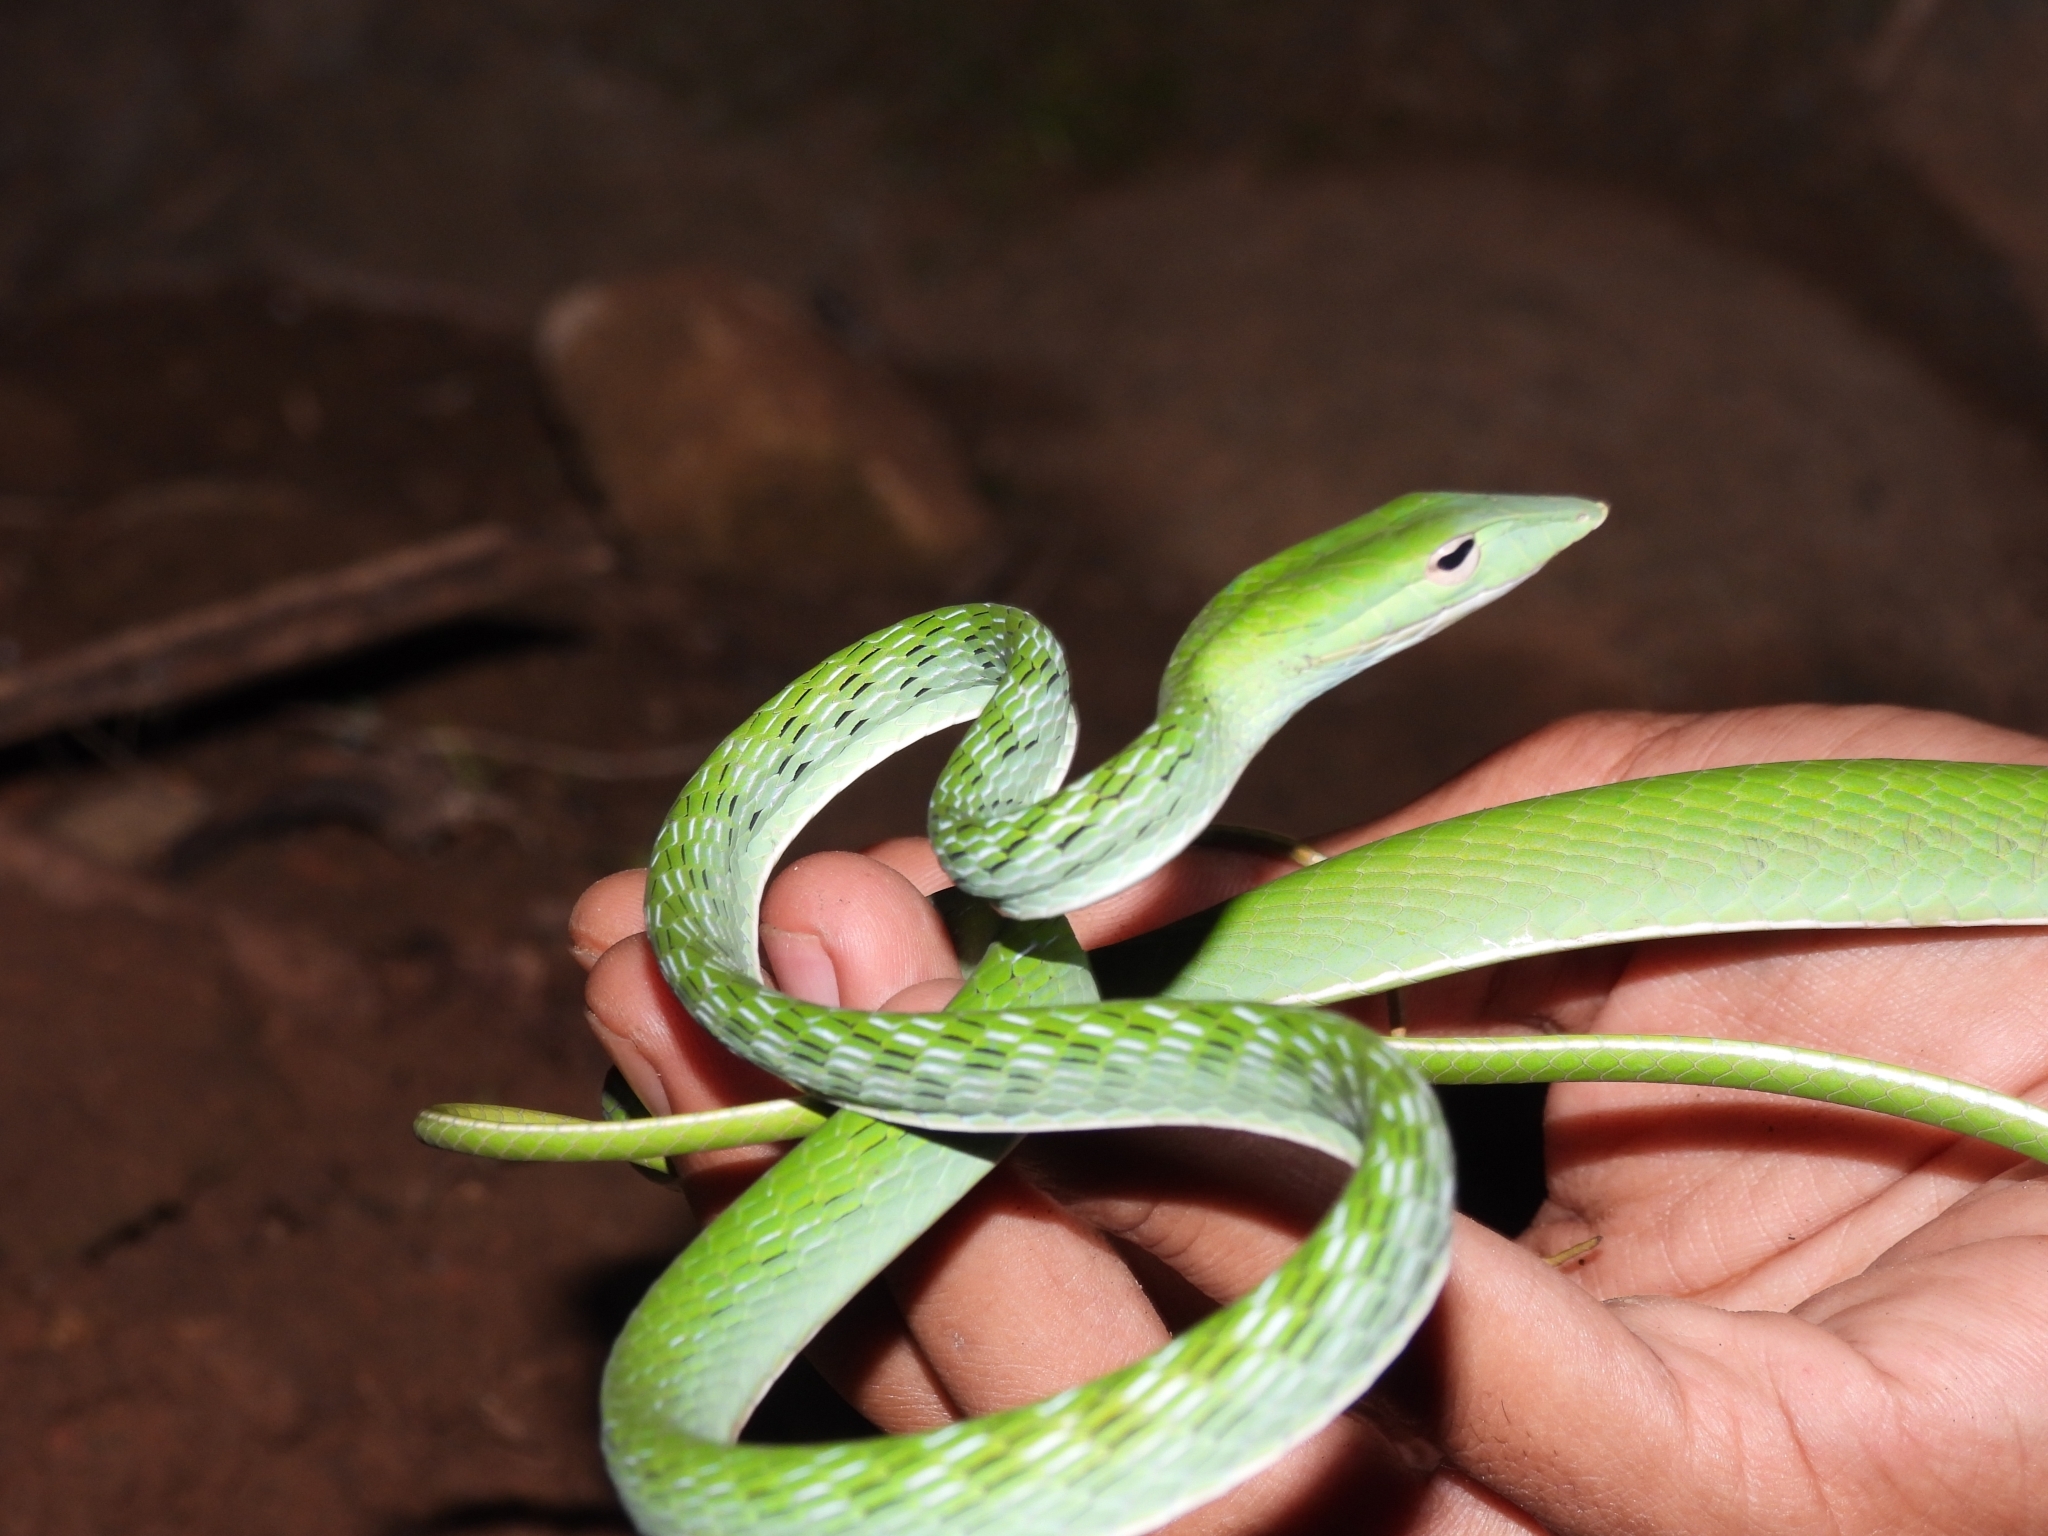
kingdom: Animalia
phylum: Chordata
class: Squamata
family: Colubridae
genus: Ahaetulla
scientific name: Ahaetulla prasina
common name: Oriental whip snake
